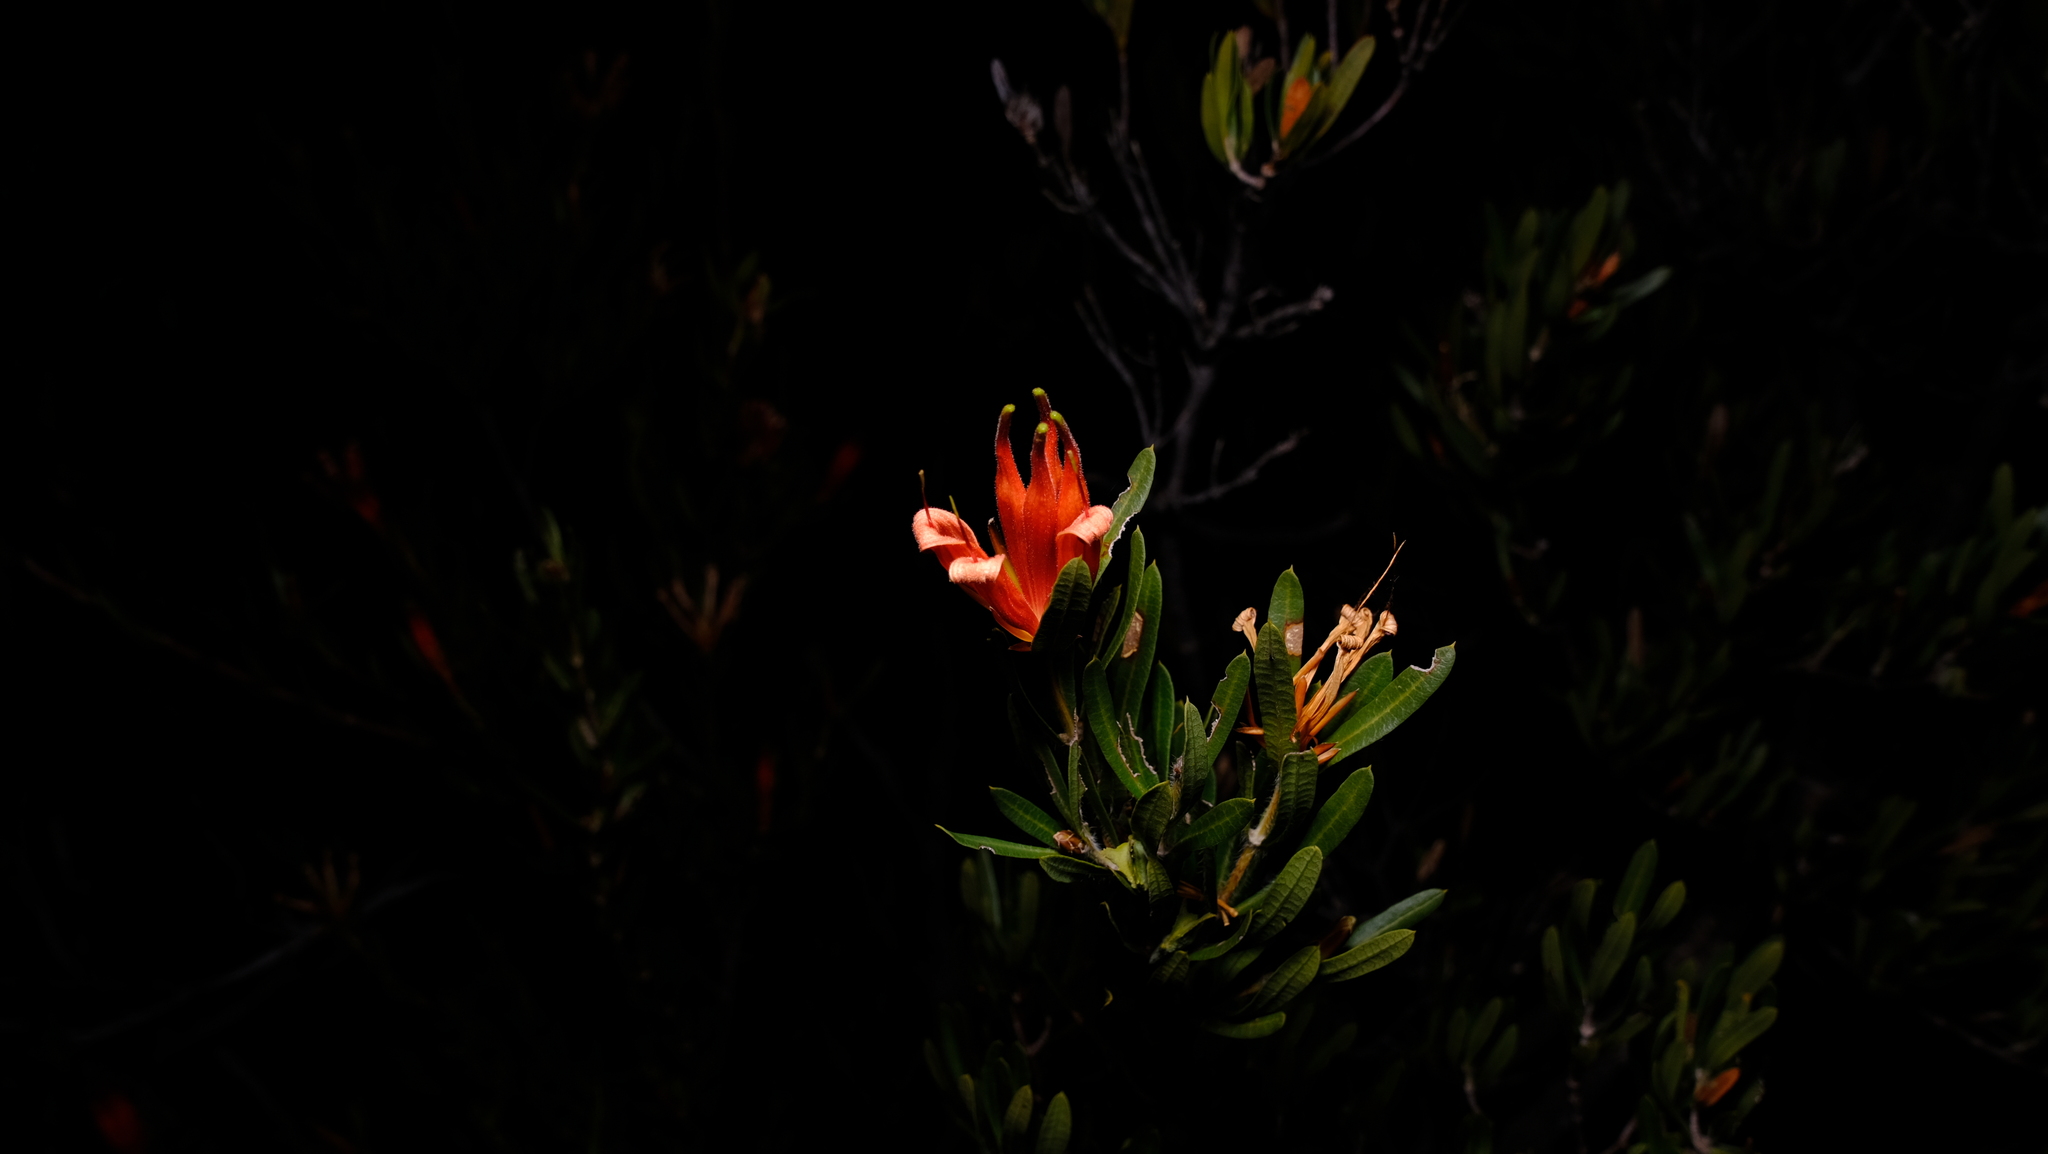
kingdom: Plantae
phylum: Tracheophyta
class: Magnoliopsida
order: Proteales
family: Proteaceae
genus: Lambertia
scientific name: Lambertia multiflora
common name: Many-flowered honeysuckle
